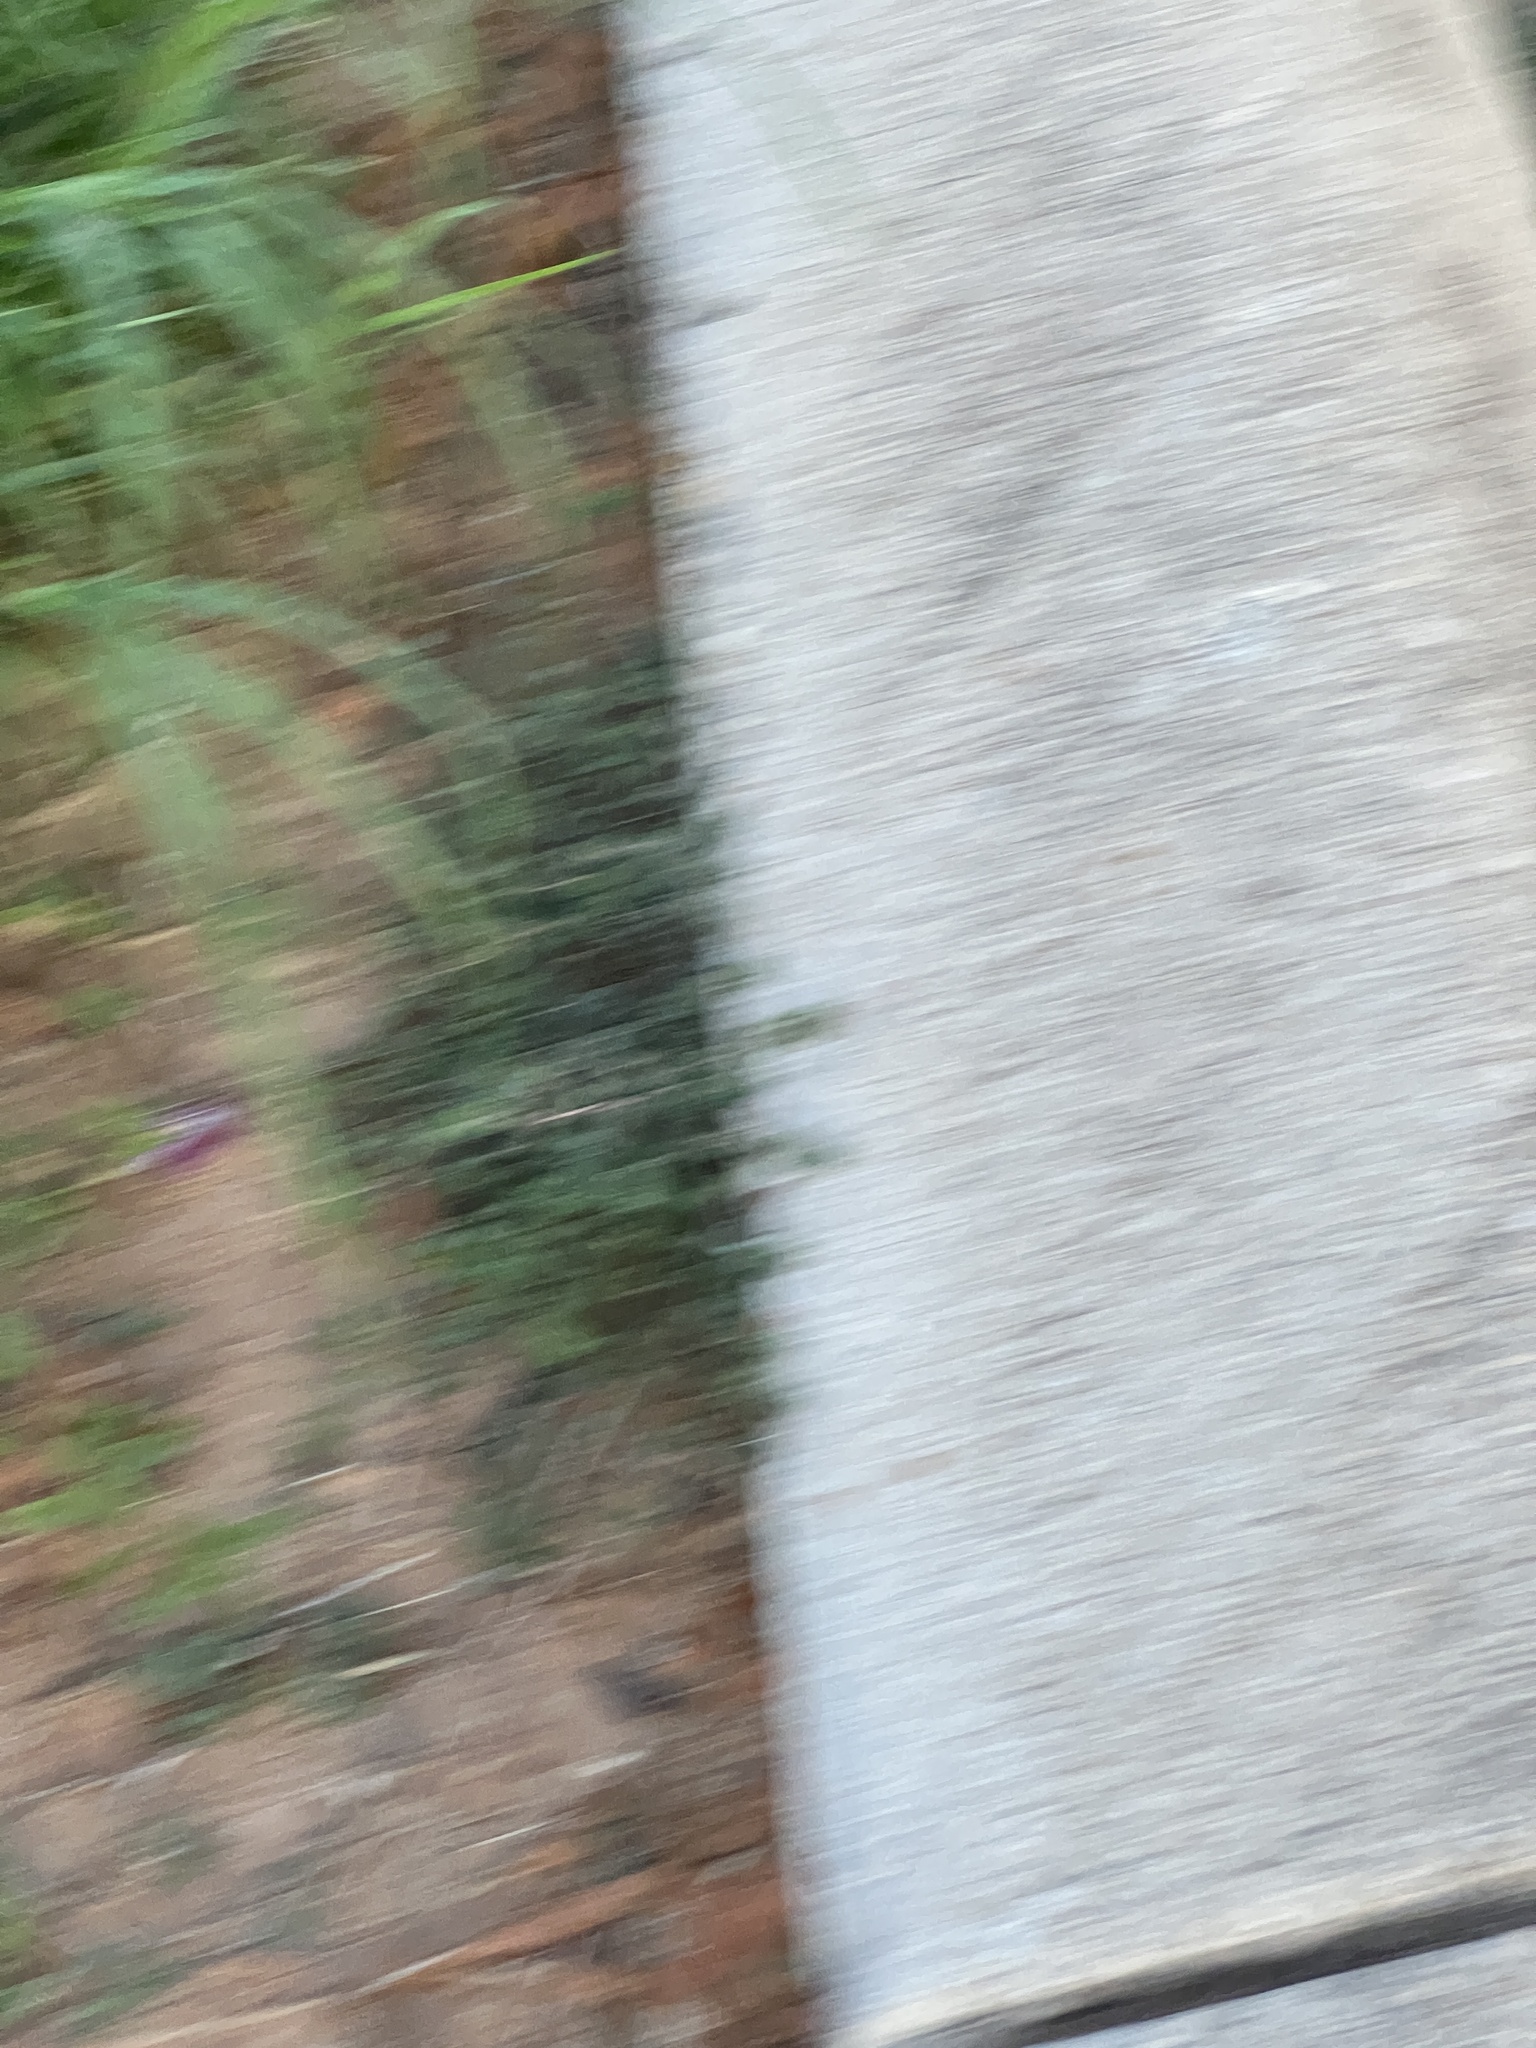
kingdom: Plantae
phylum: Tracheophyta
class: Magnoliopsida
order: Malpighiales
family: Euphorbiaceae
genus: Euphorbia
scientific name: Euphorbia serpens
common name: Matted sandmat
